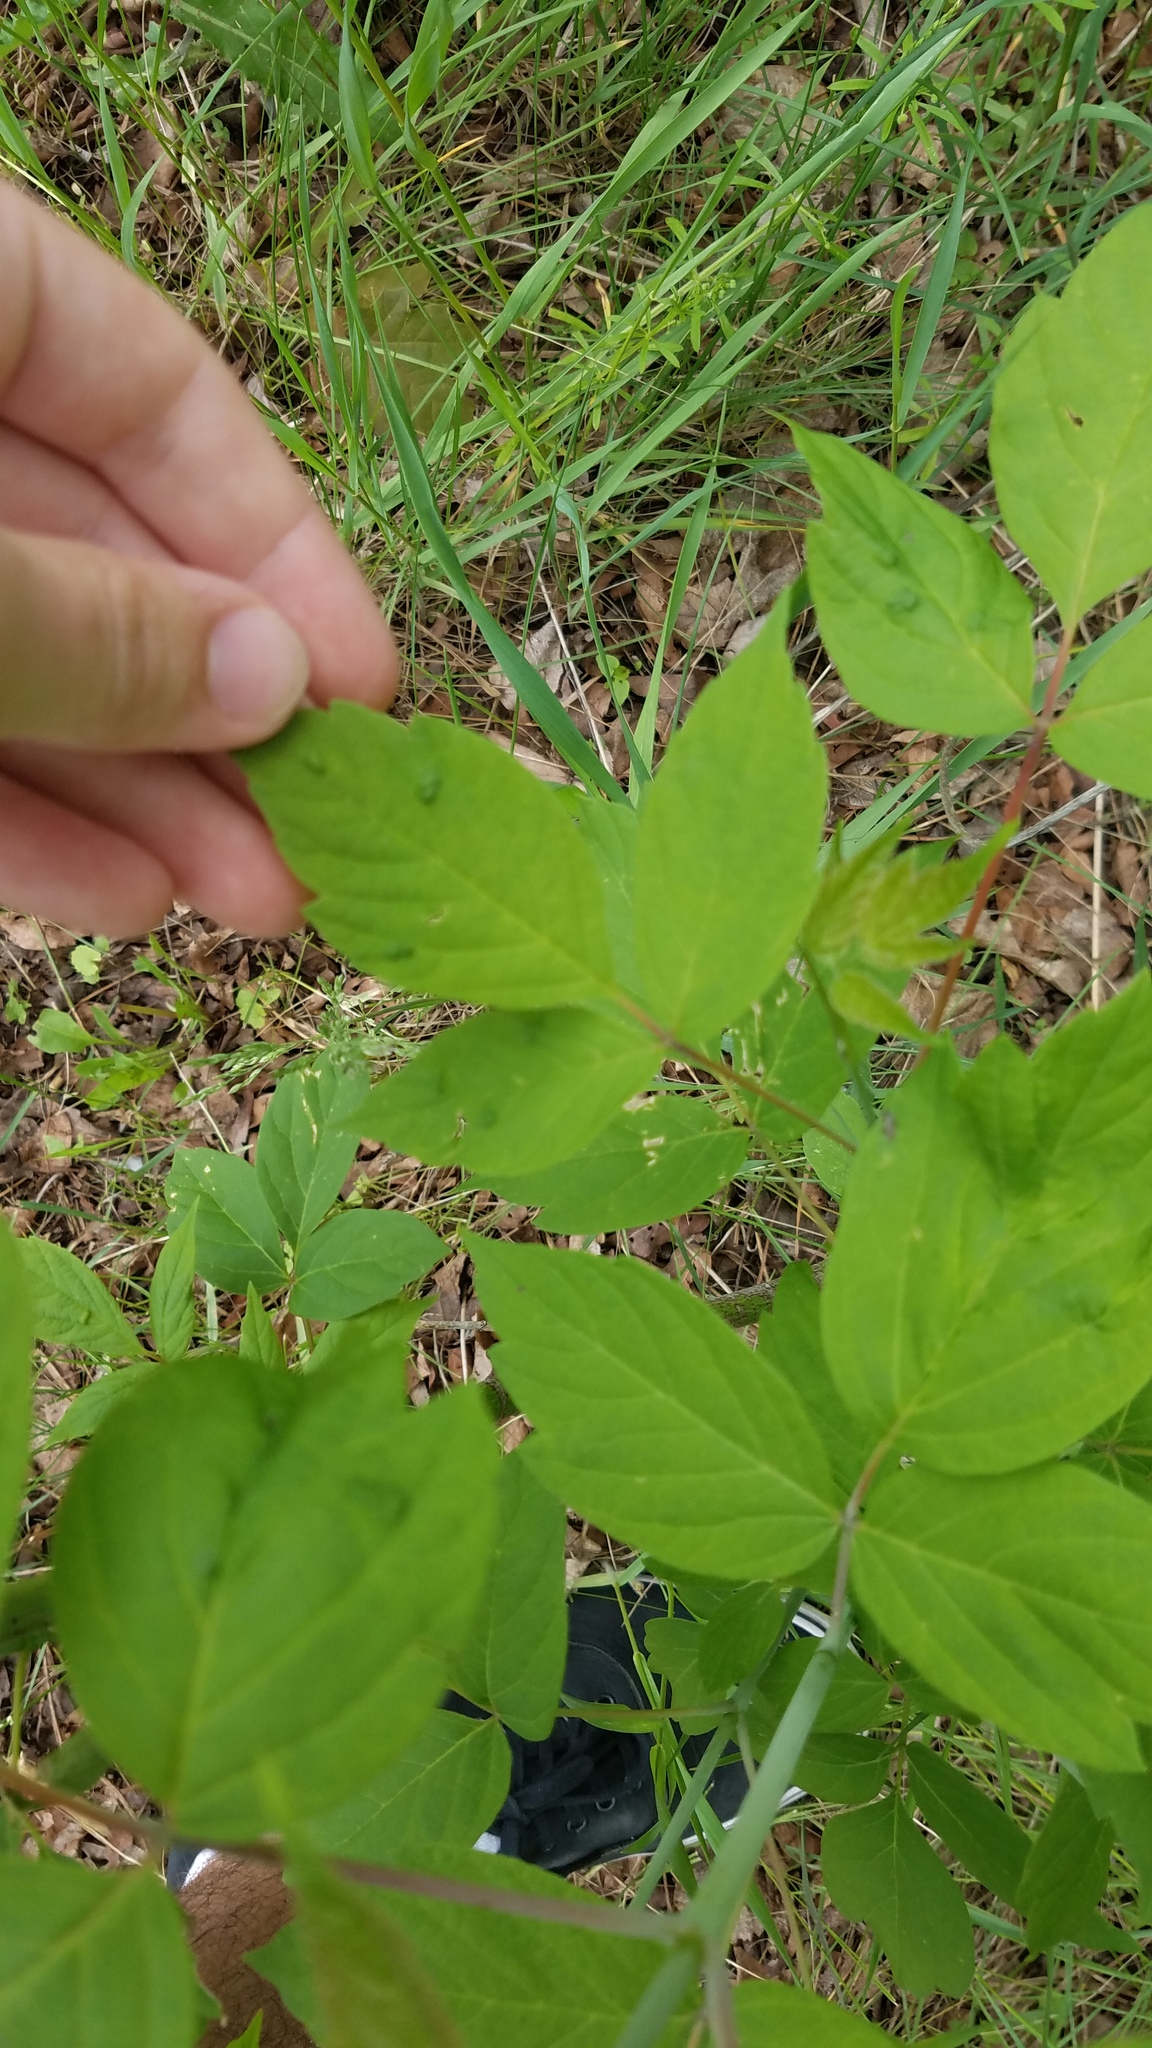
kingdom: Animalia
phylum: Arthropoda
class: Arachnida
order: Trombidiformes
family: Eriophyidae
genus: Aceria
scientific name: Aceria
